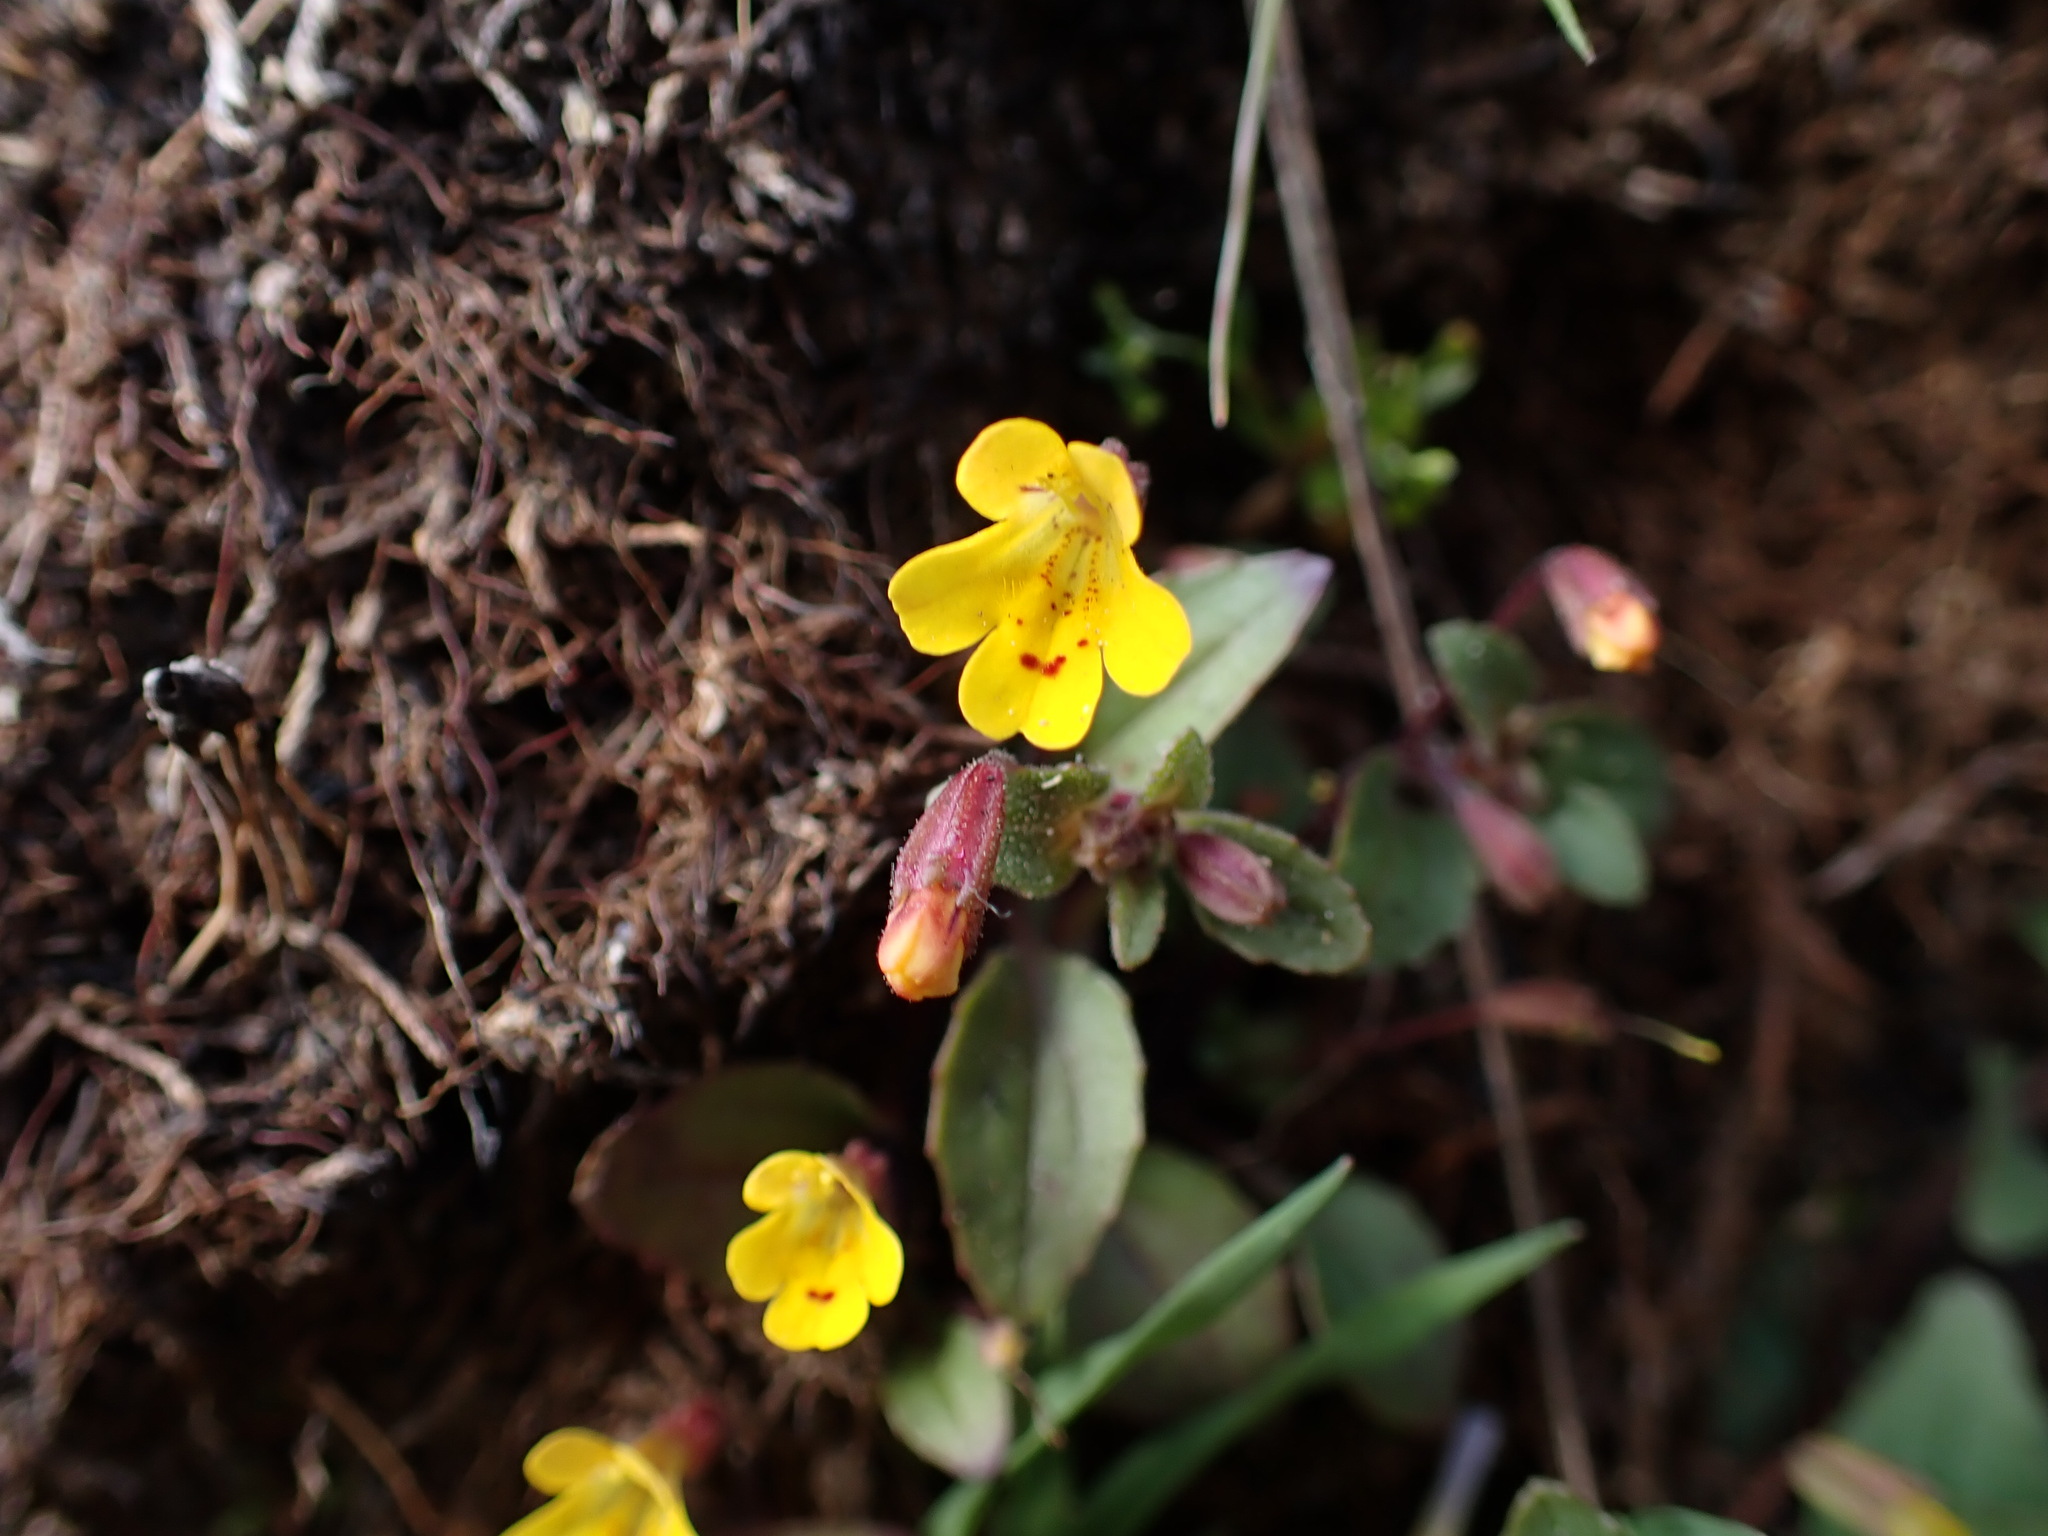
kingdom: Plantae
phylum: Tracheophyta
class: Magnoliopsida
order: Lamiales
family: Phrymaceae
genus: Erythranthe
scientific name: Erythranthe alsinoides
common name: Chickweed monkeyflower
